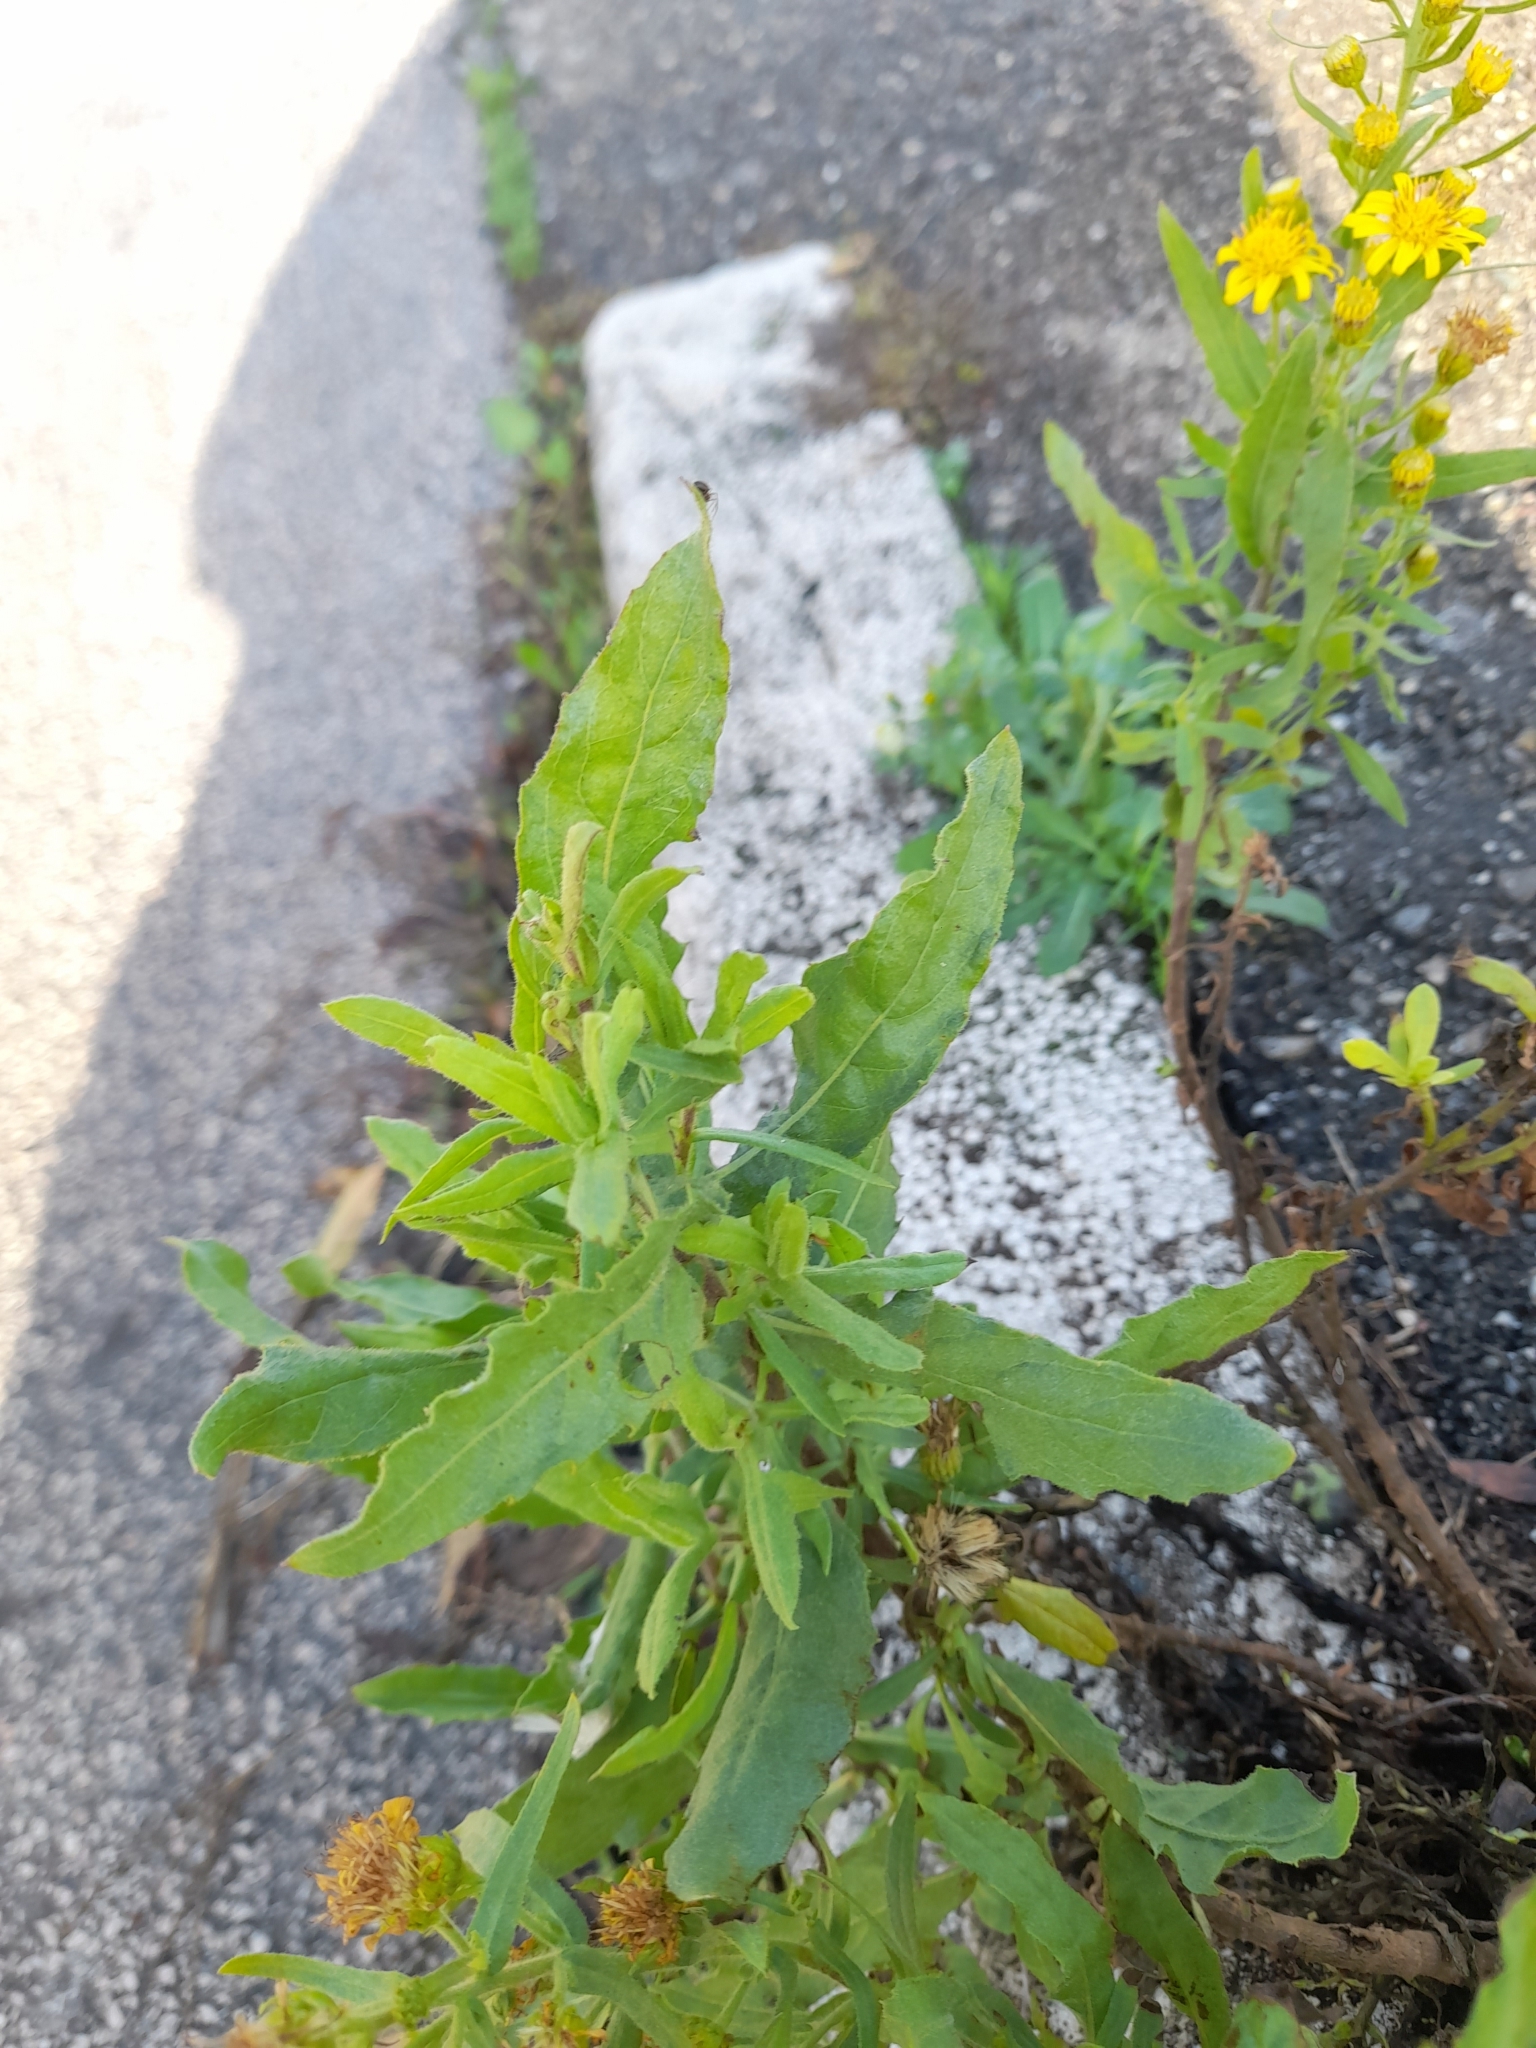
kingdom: Plantae
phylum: Tracheophyta
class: Magnoliopsida
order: Asterales
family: Asteraceae
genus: Dittrichia
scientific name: Dittrichia viscosa
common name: Woody fleabane
